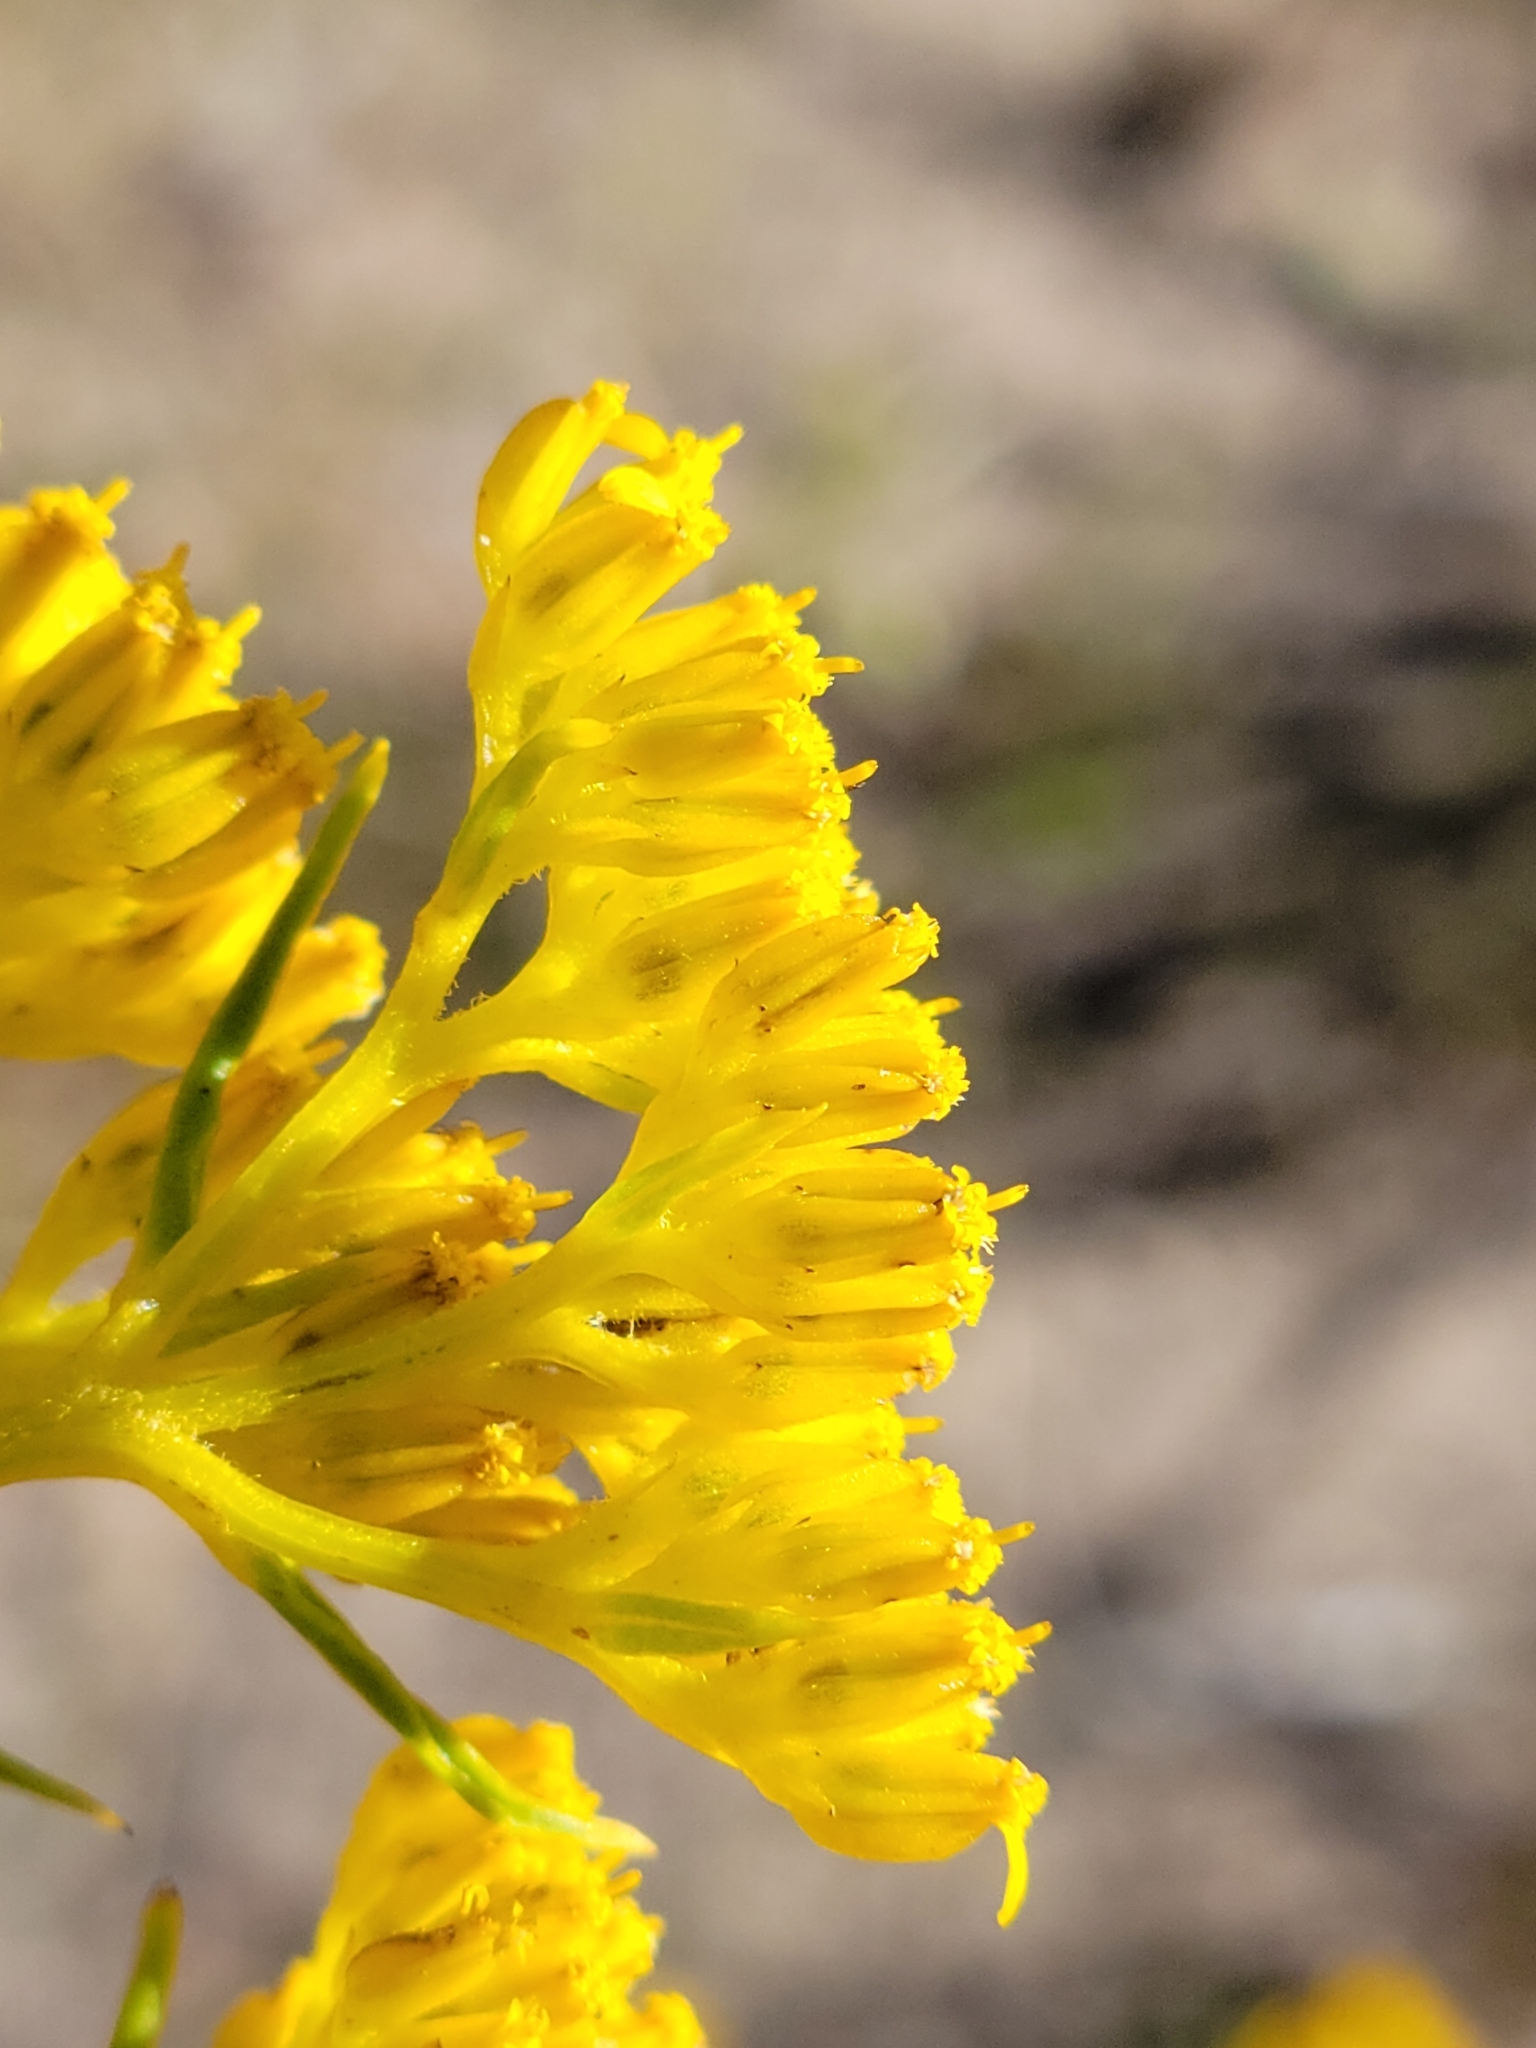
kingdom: Plantae
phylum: Tracheophyta
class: Magnoliopsida
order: Asterales
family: Asteraceae
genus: Flaveria
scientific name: Flaveria linearis
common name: Yellowtop
